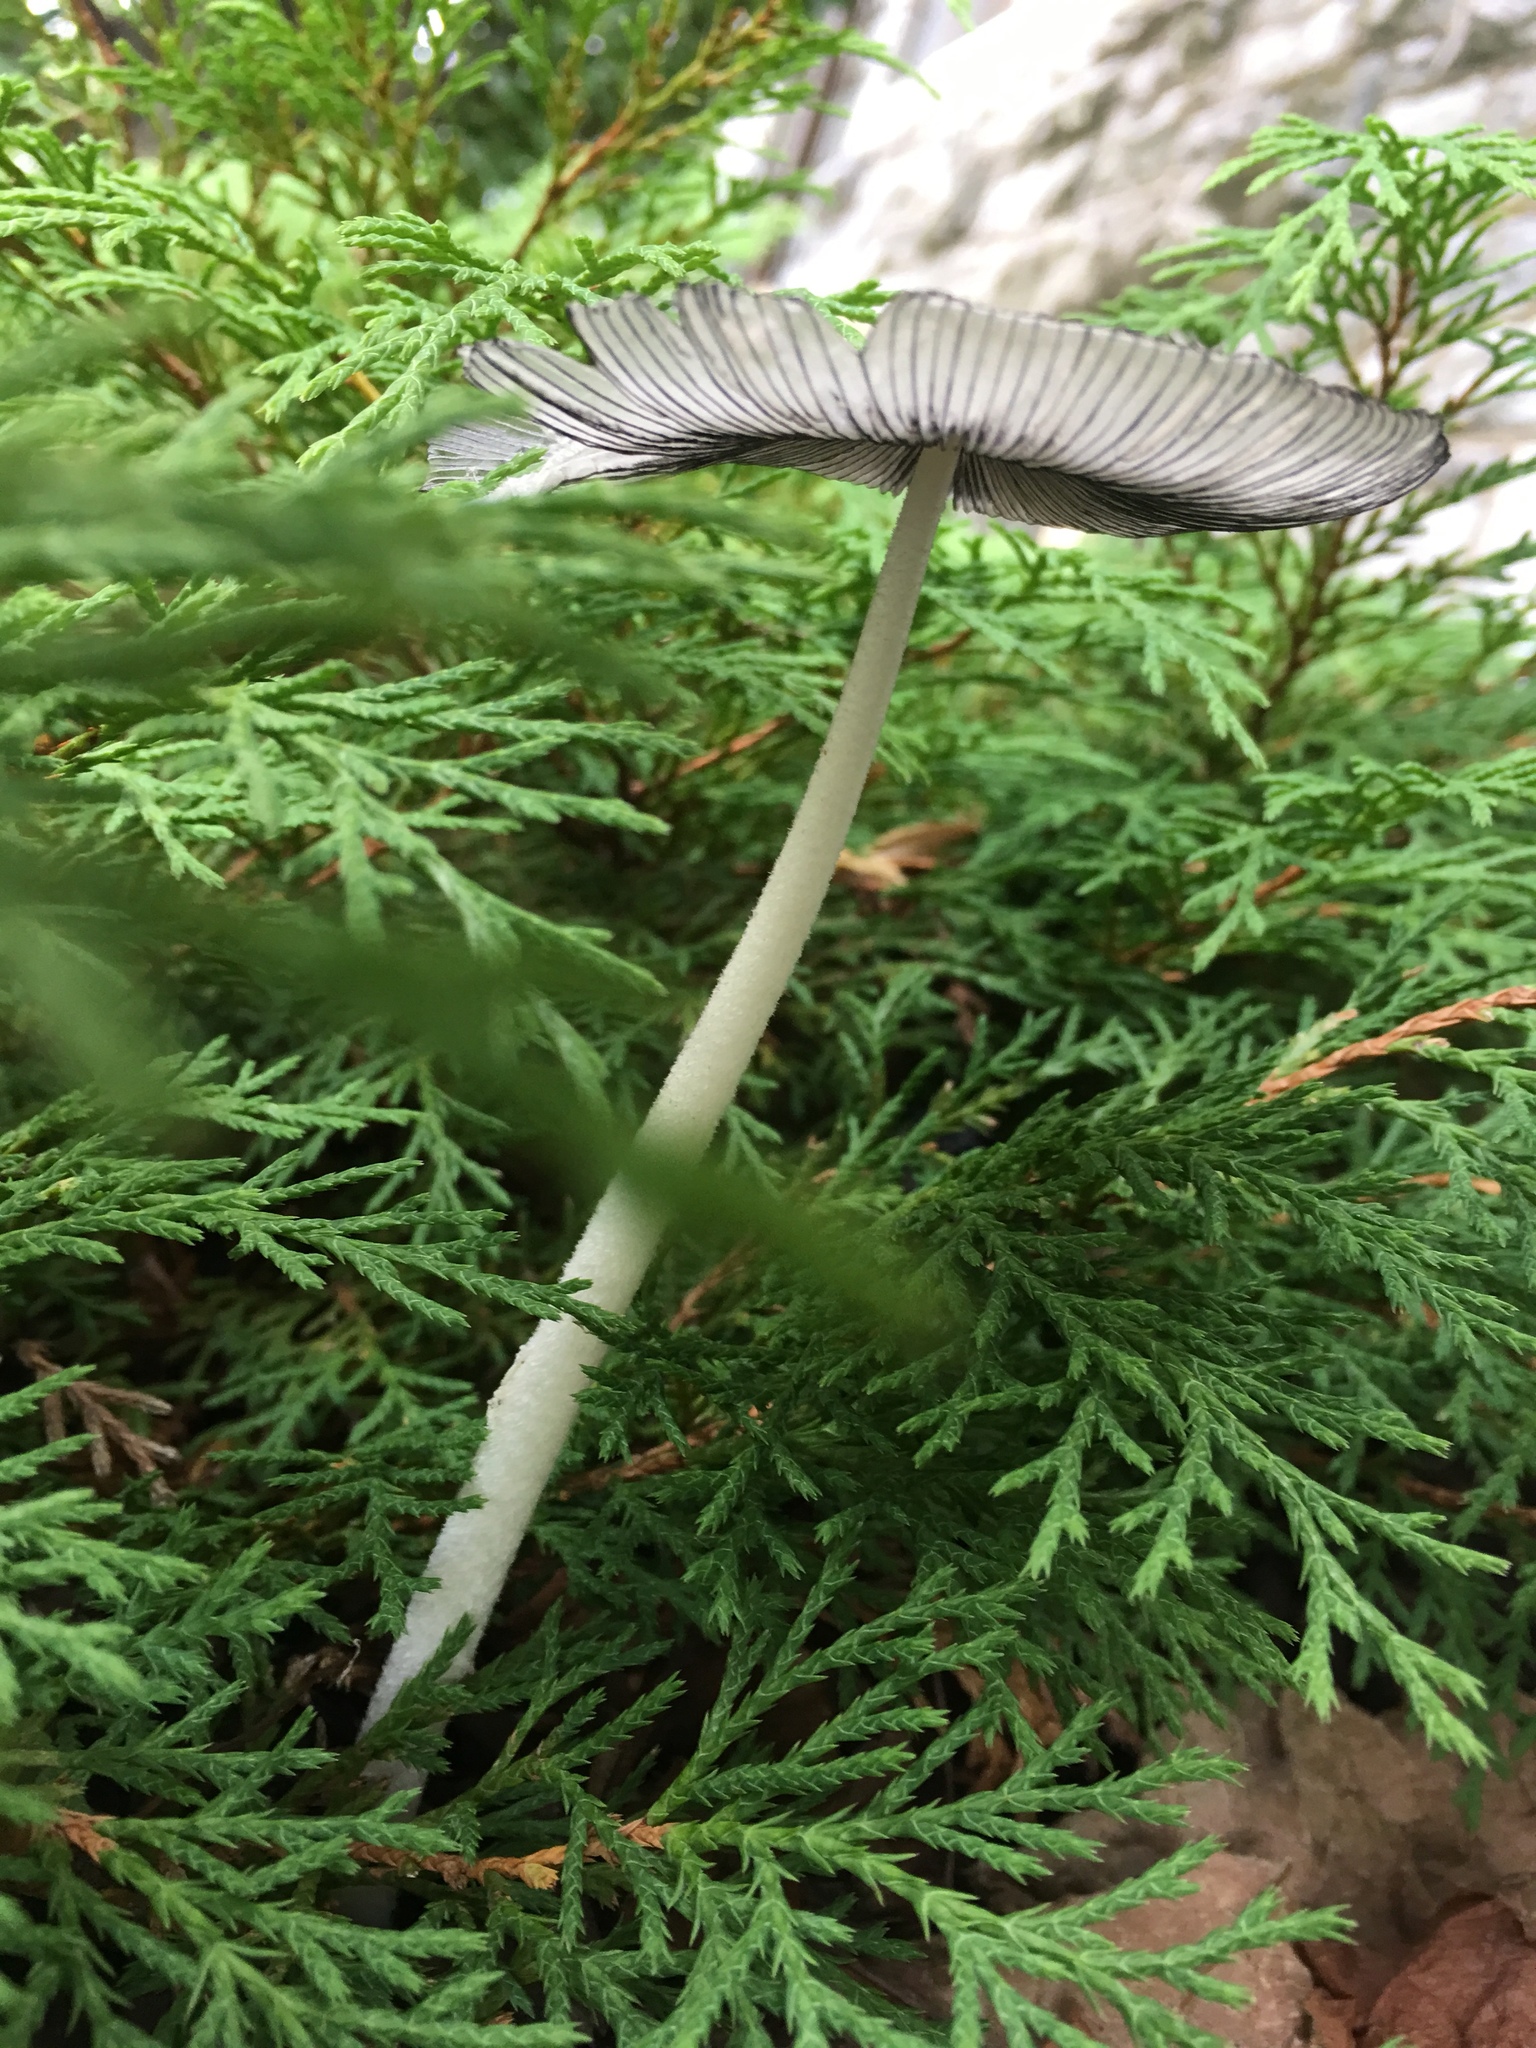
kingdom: Fungi
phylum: Basidiomycota
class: Agaricomycetes
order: Agaricales
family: Psathyrellaceae
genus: Coprinopsis
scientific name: Coprinopsis lagopus
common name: Hare'sfoot inkcap
